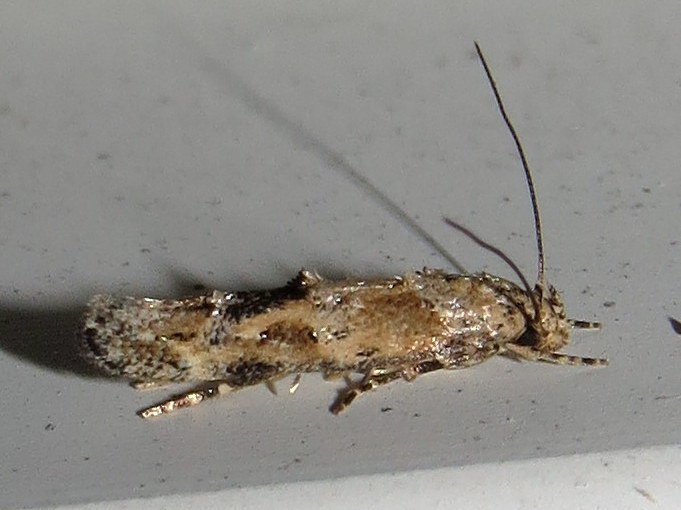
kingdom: Animalia
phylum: Arthropoda
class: Insecta
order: Lepidoptera
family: Momphidae
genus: Mompha
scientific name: Mompha stellella
